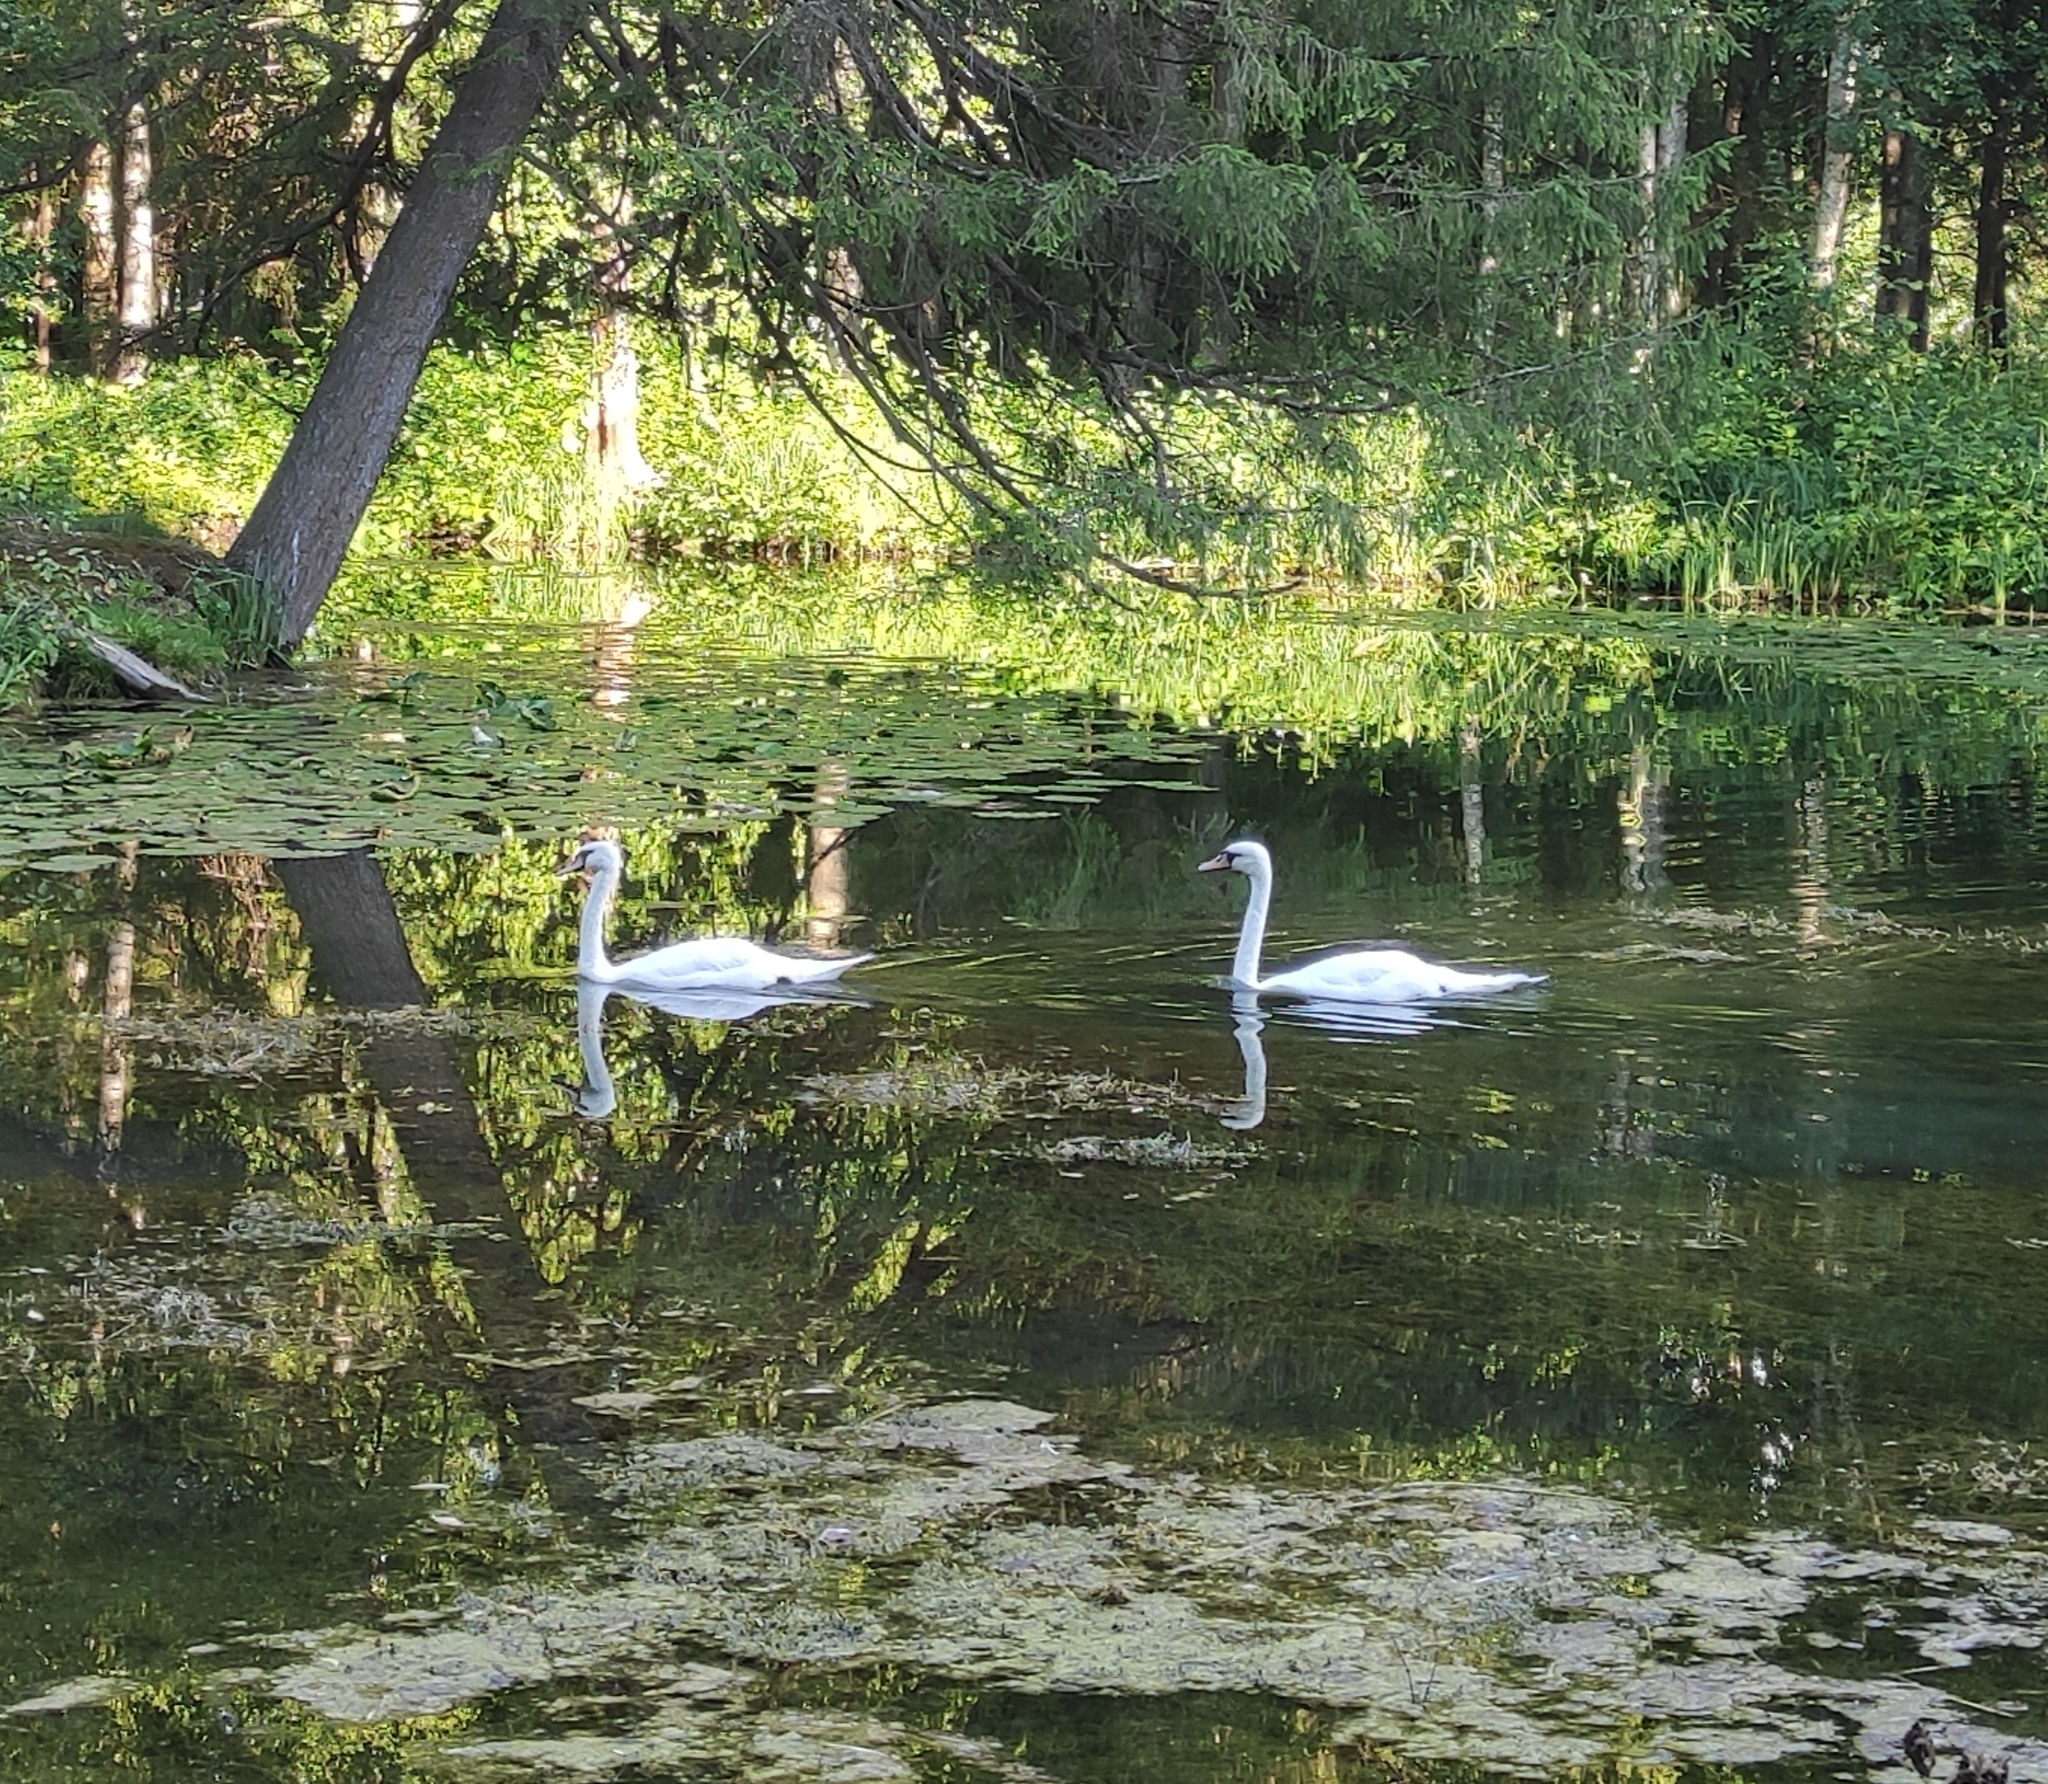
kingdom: Animalia
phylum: Chordata
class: Aves
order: Anseriformes
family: Anatidae
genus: Cygnus
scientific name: Cygnus olor
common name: Mute swan
